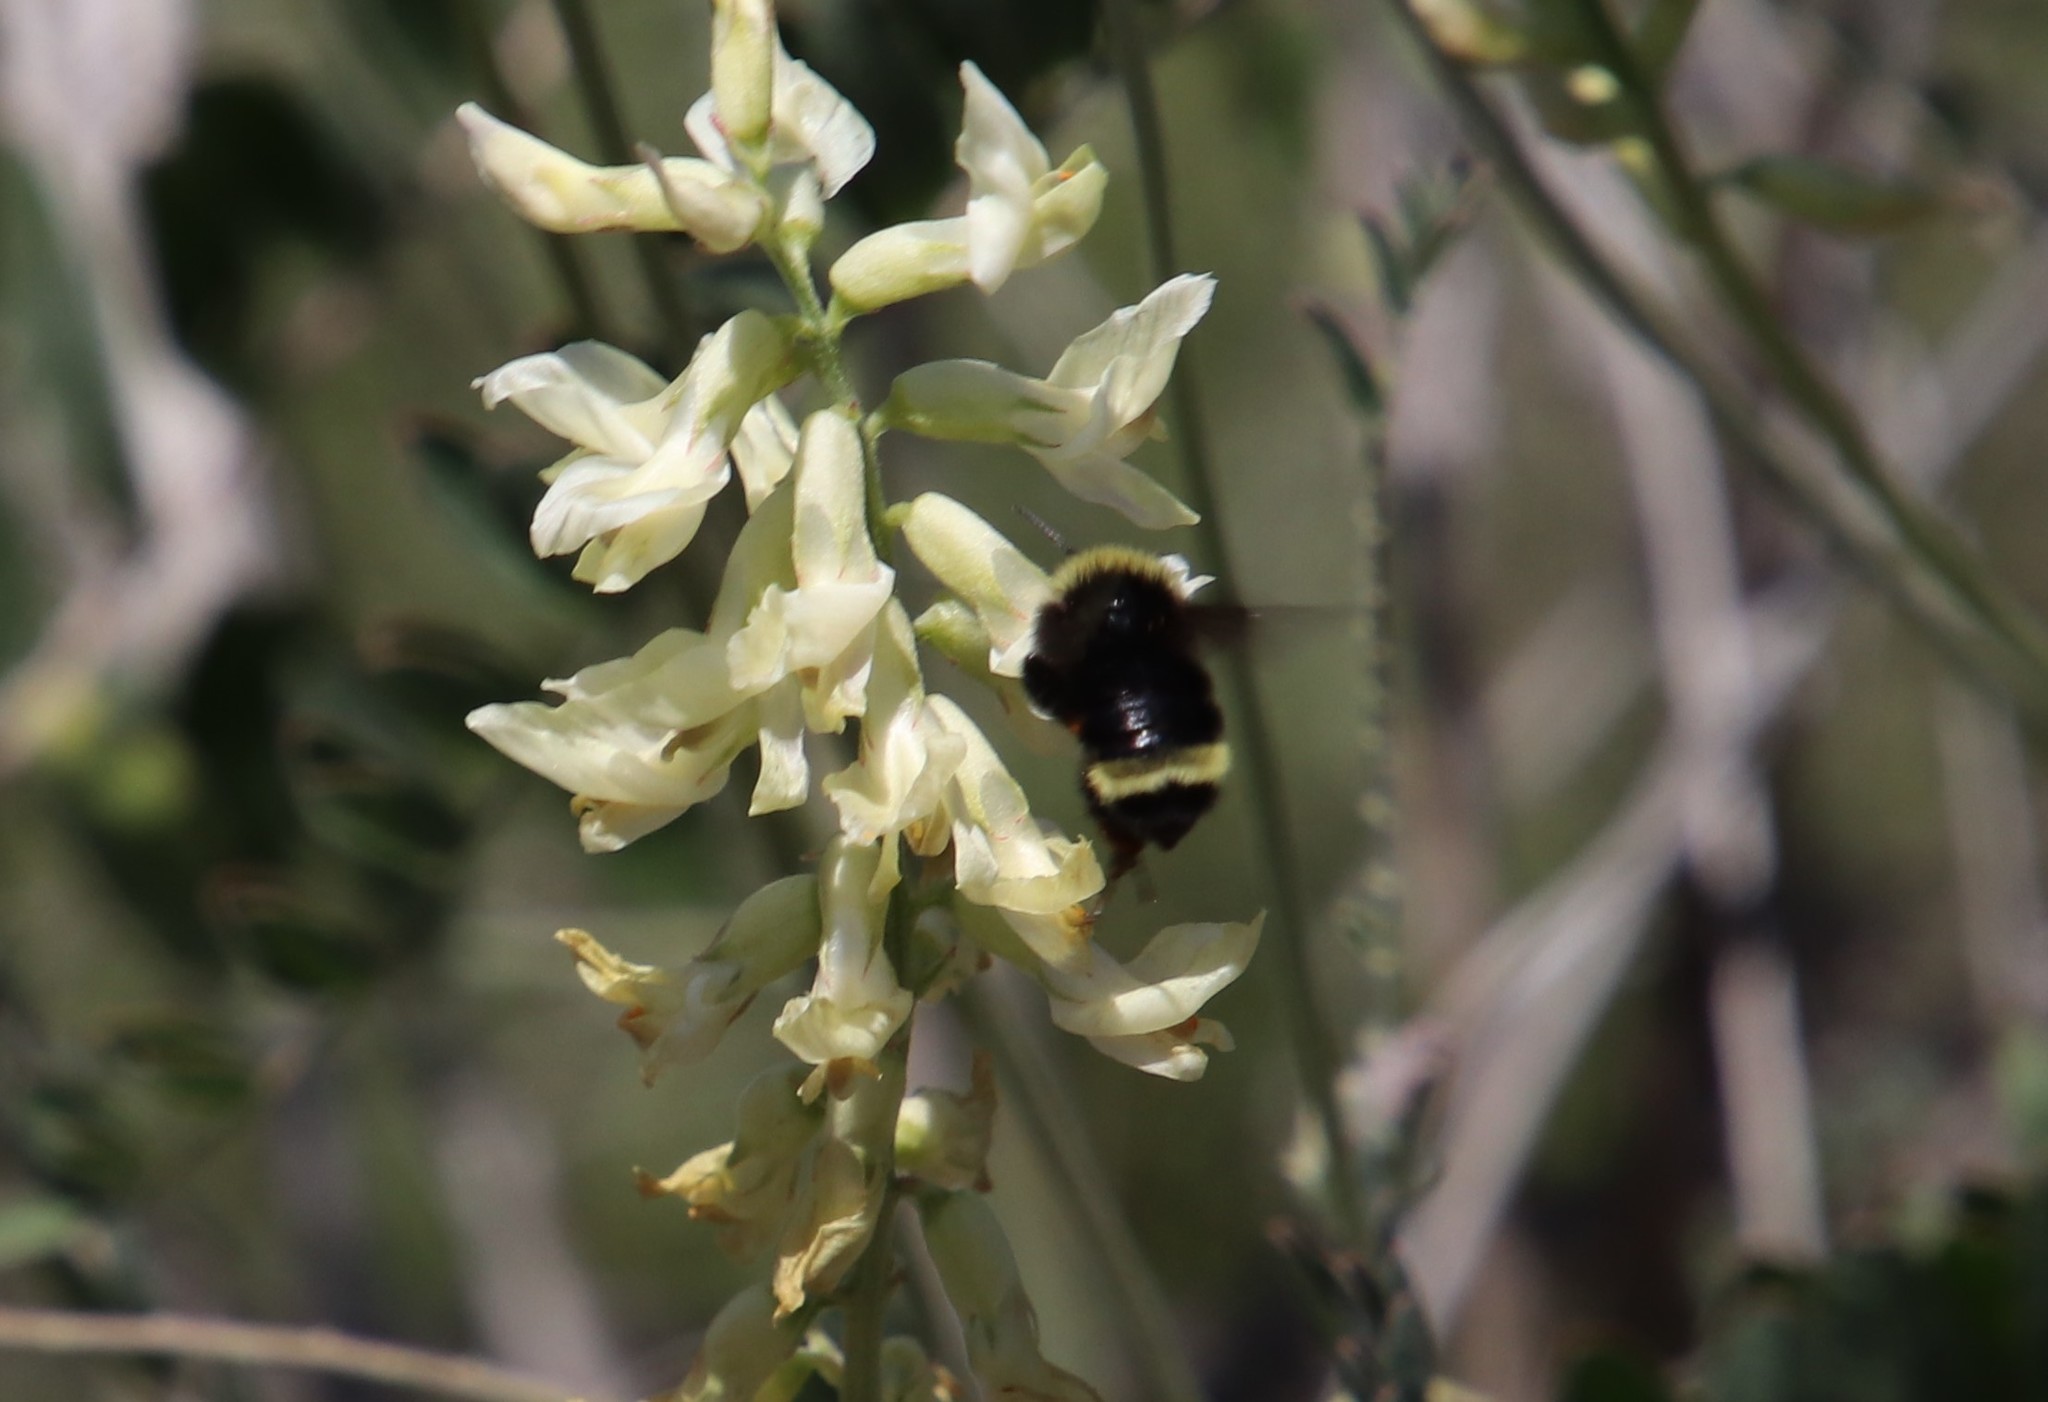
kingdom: Animalia
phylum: Arthropoda
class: Insecta
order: Hymenoptera
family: Apidae
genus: Bombus
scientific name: Bombus californicus
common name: California bumble bee
